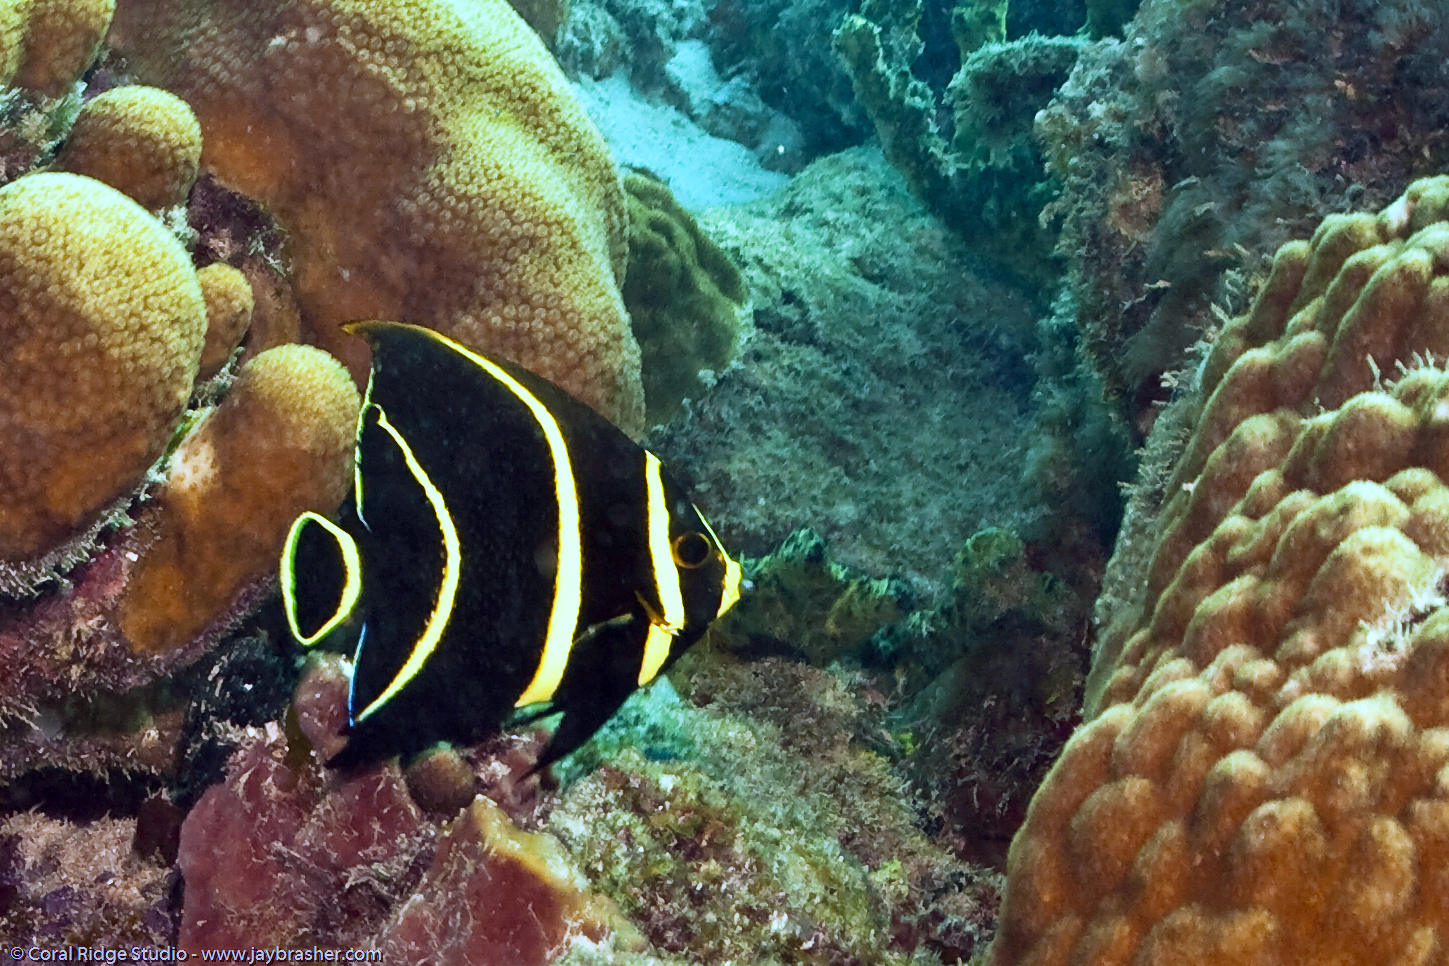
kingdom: Animalia
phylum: Chordata
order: Perciformes
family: Pomacanthidae
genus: Pomacanthus
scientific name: Pomacanthus paru
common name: French angelfish
